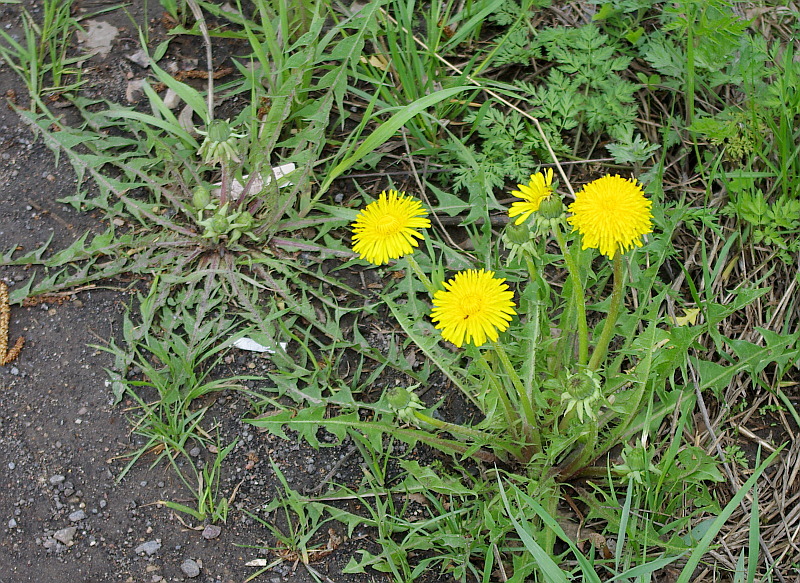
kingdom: Plantae
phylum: Tracheophyta
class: Magnoliopsida
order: Asterales
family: Asteraceae
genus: Taraxacum
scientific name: Taraxacum officinale
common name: Common dandelion
